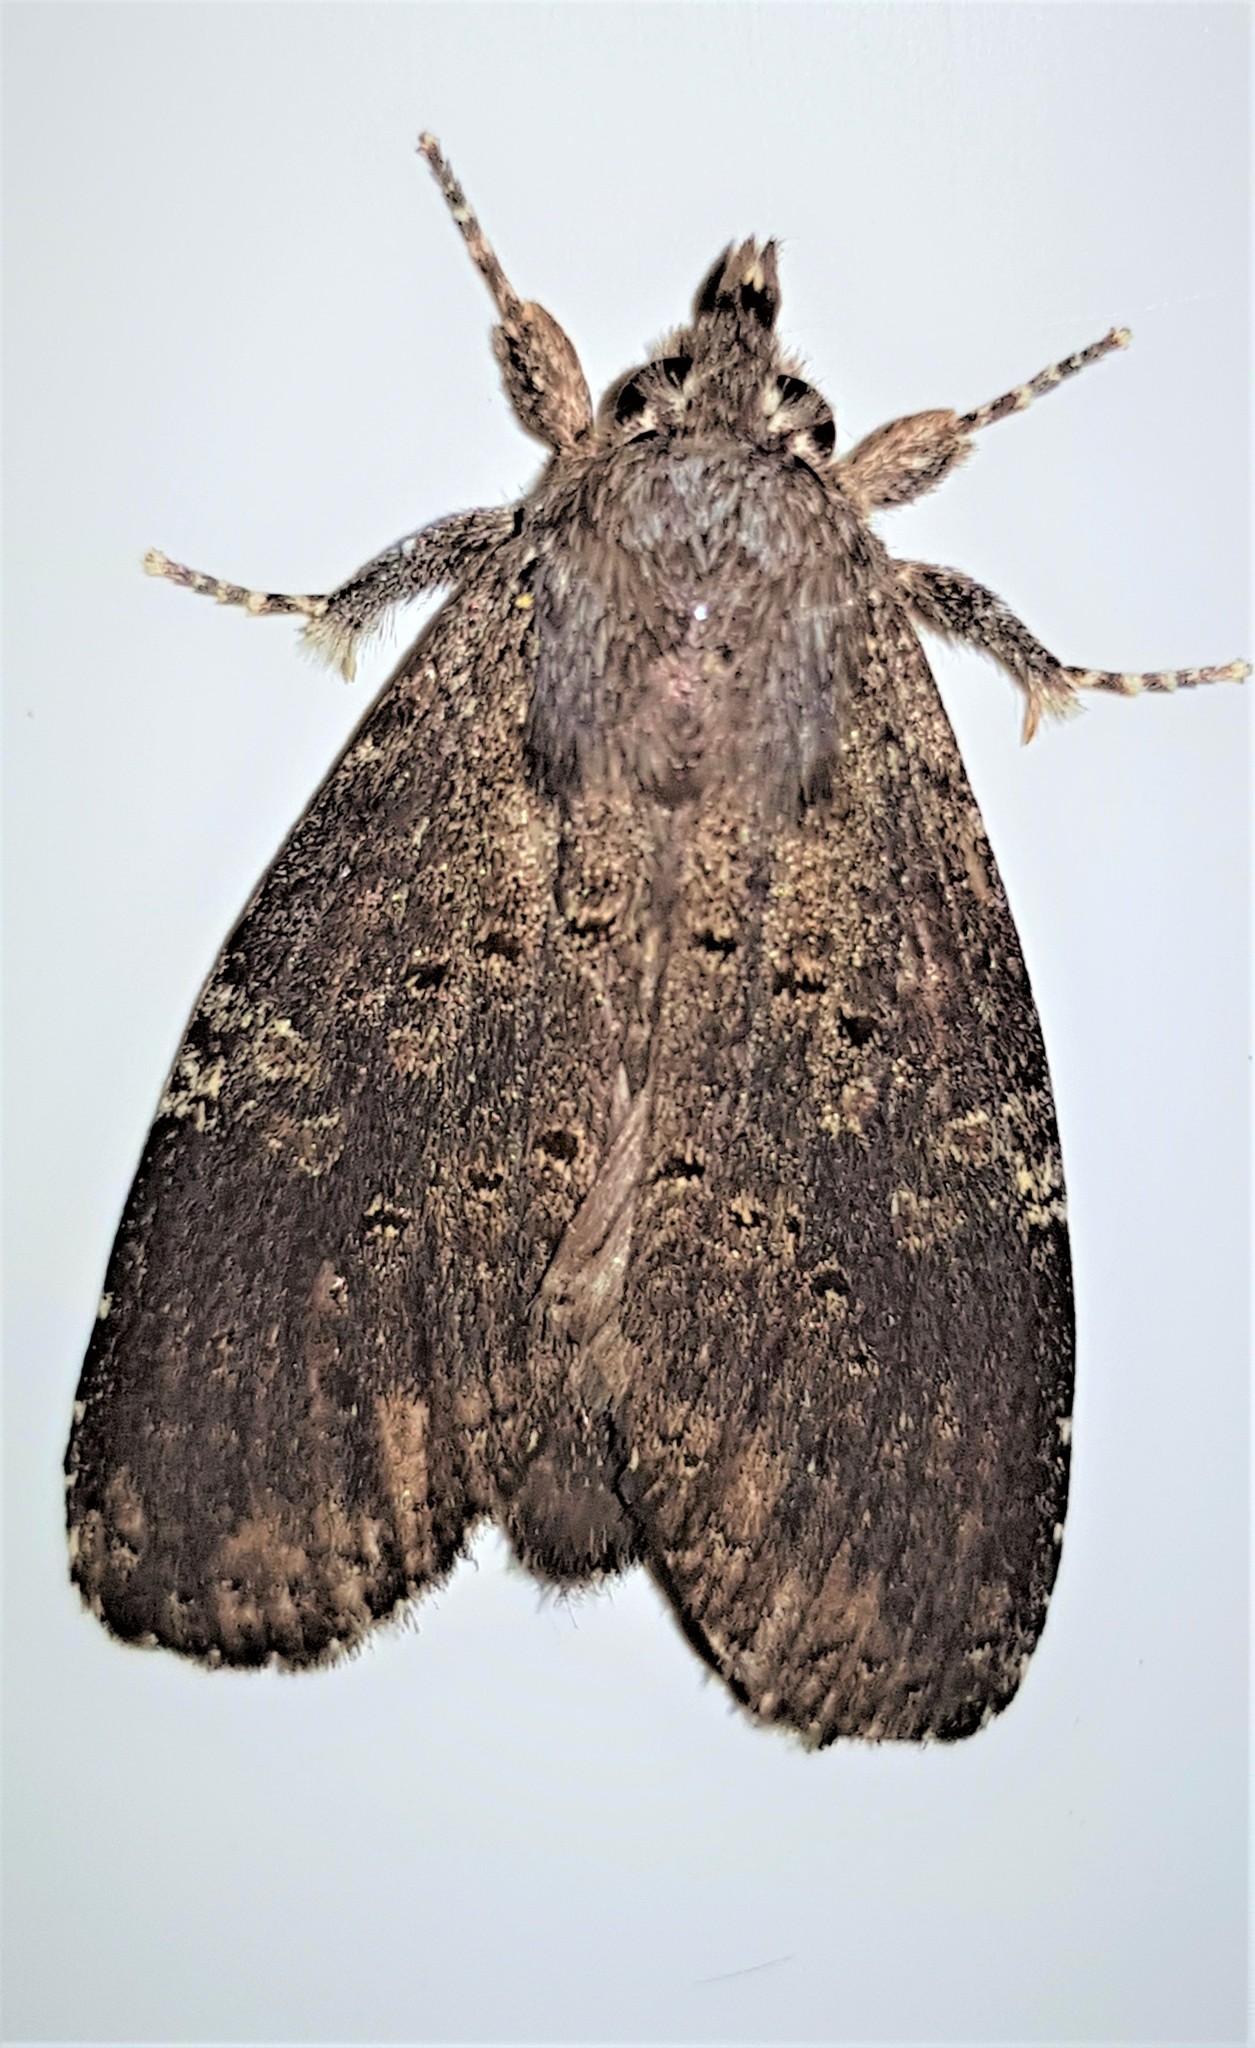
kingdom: Animalia
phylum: Arthropoda
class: Insecta
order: Lepidoptera
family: Notodontidae
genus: Lusura
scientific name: Lusura plorabilis
